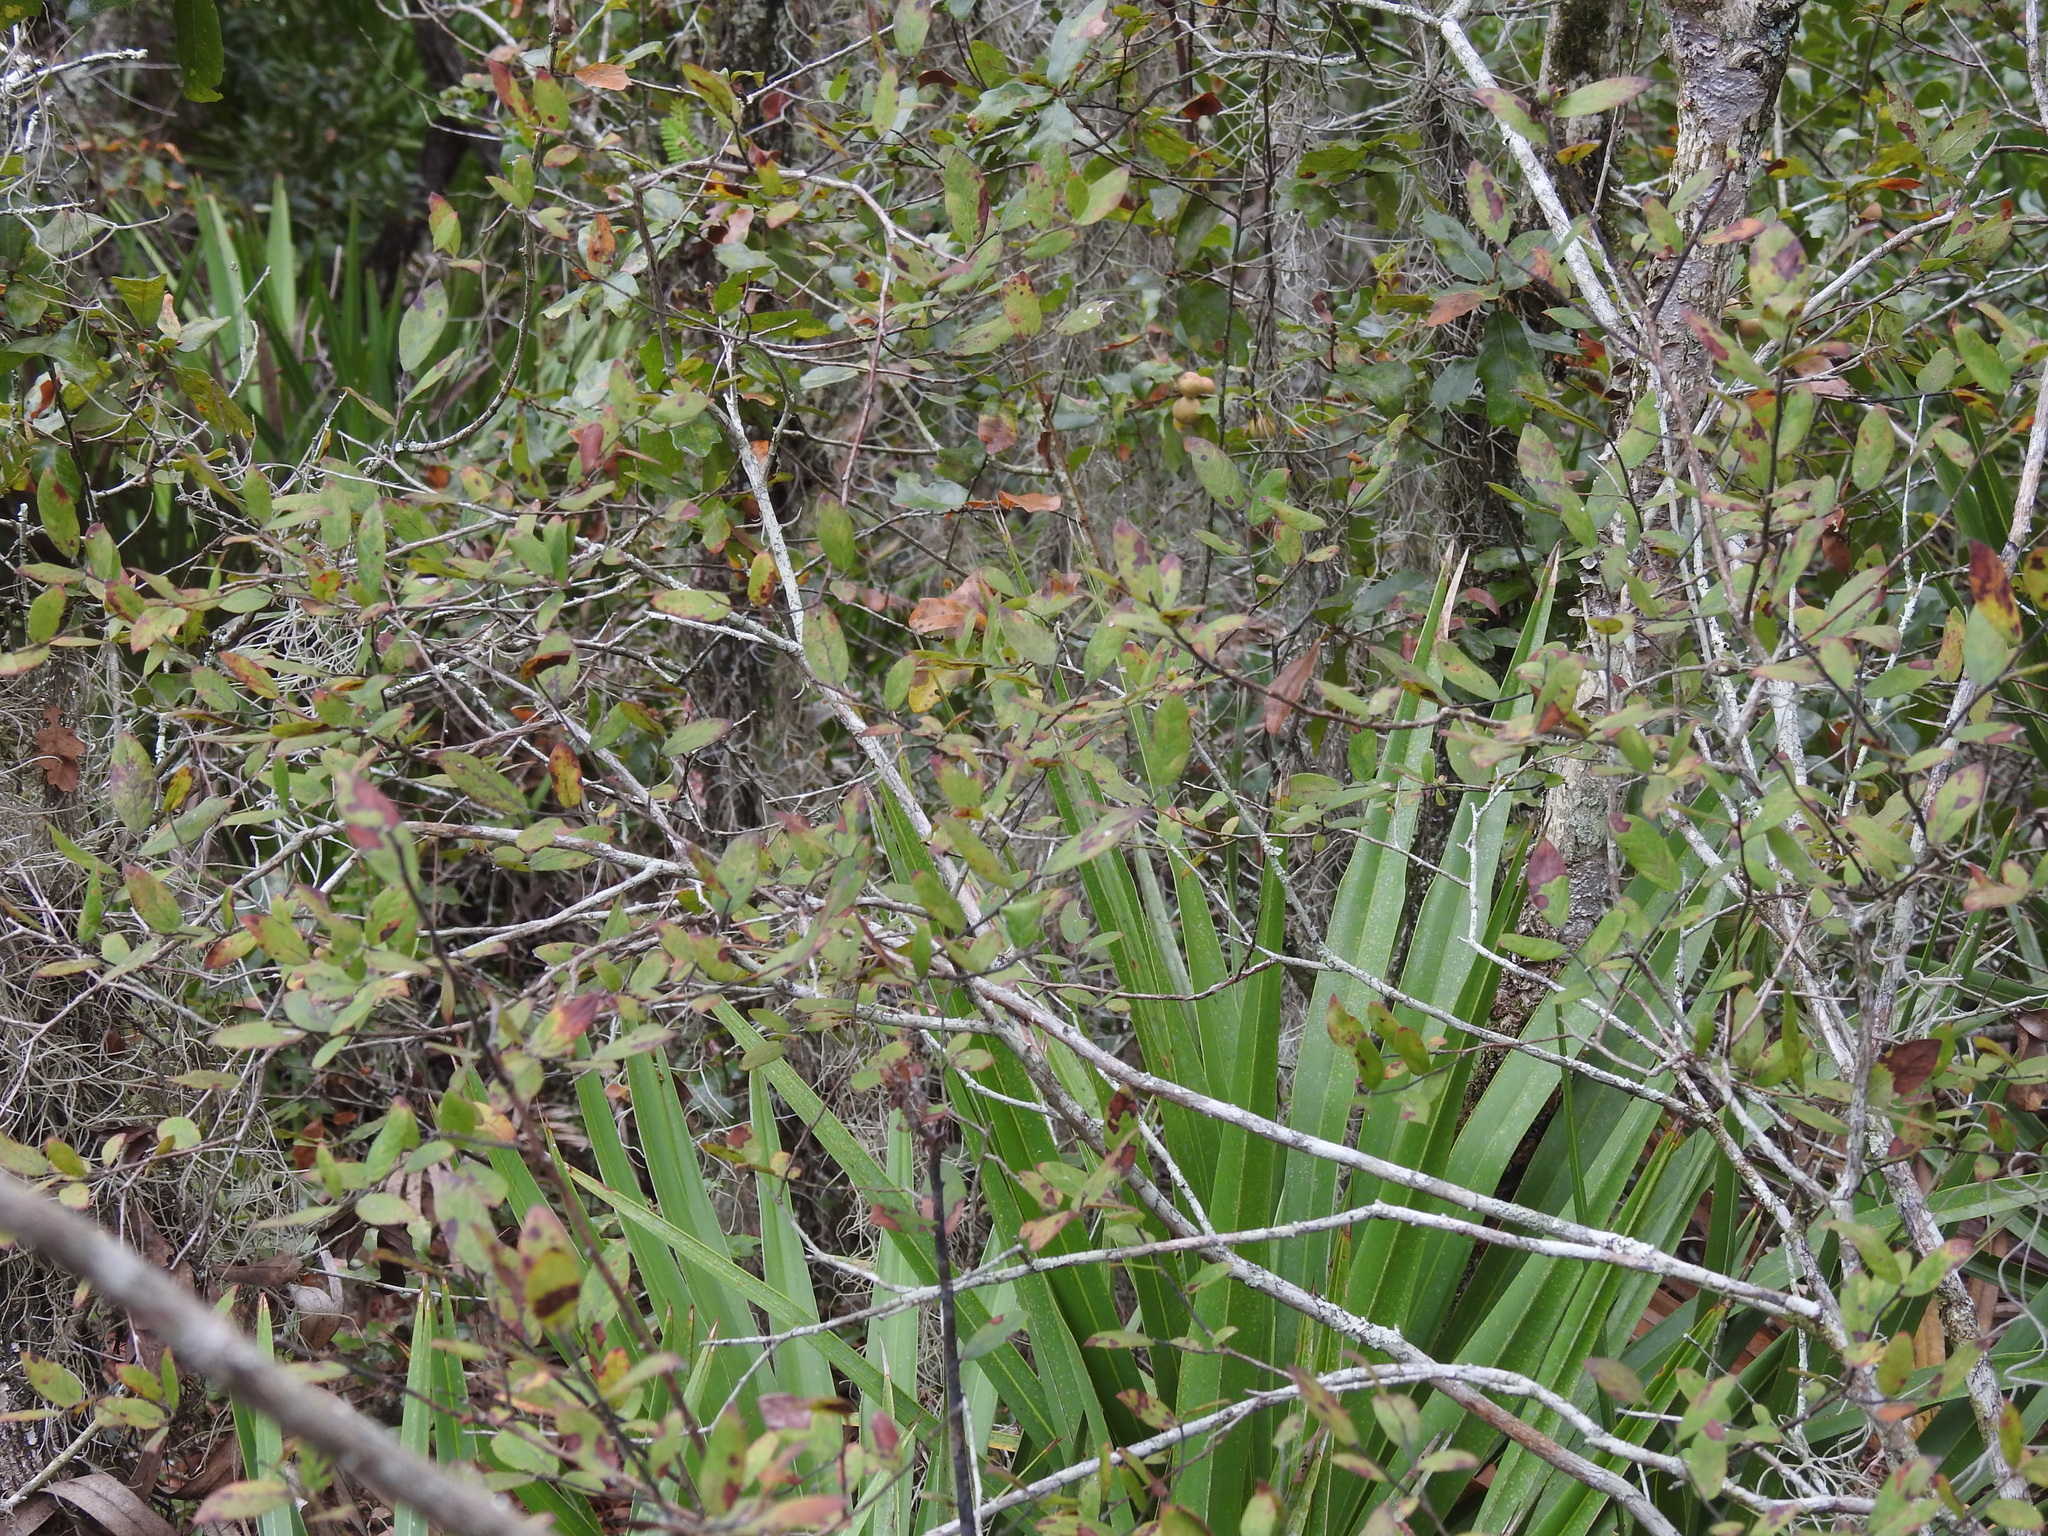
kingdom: Plantae
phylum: Tracheophyta
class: Magnoliopsida
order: Ericales
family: Ericaceae
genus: Vaccinium
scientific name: Vaccinium stamineum
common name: Deerberry
